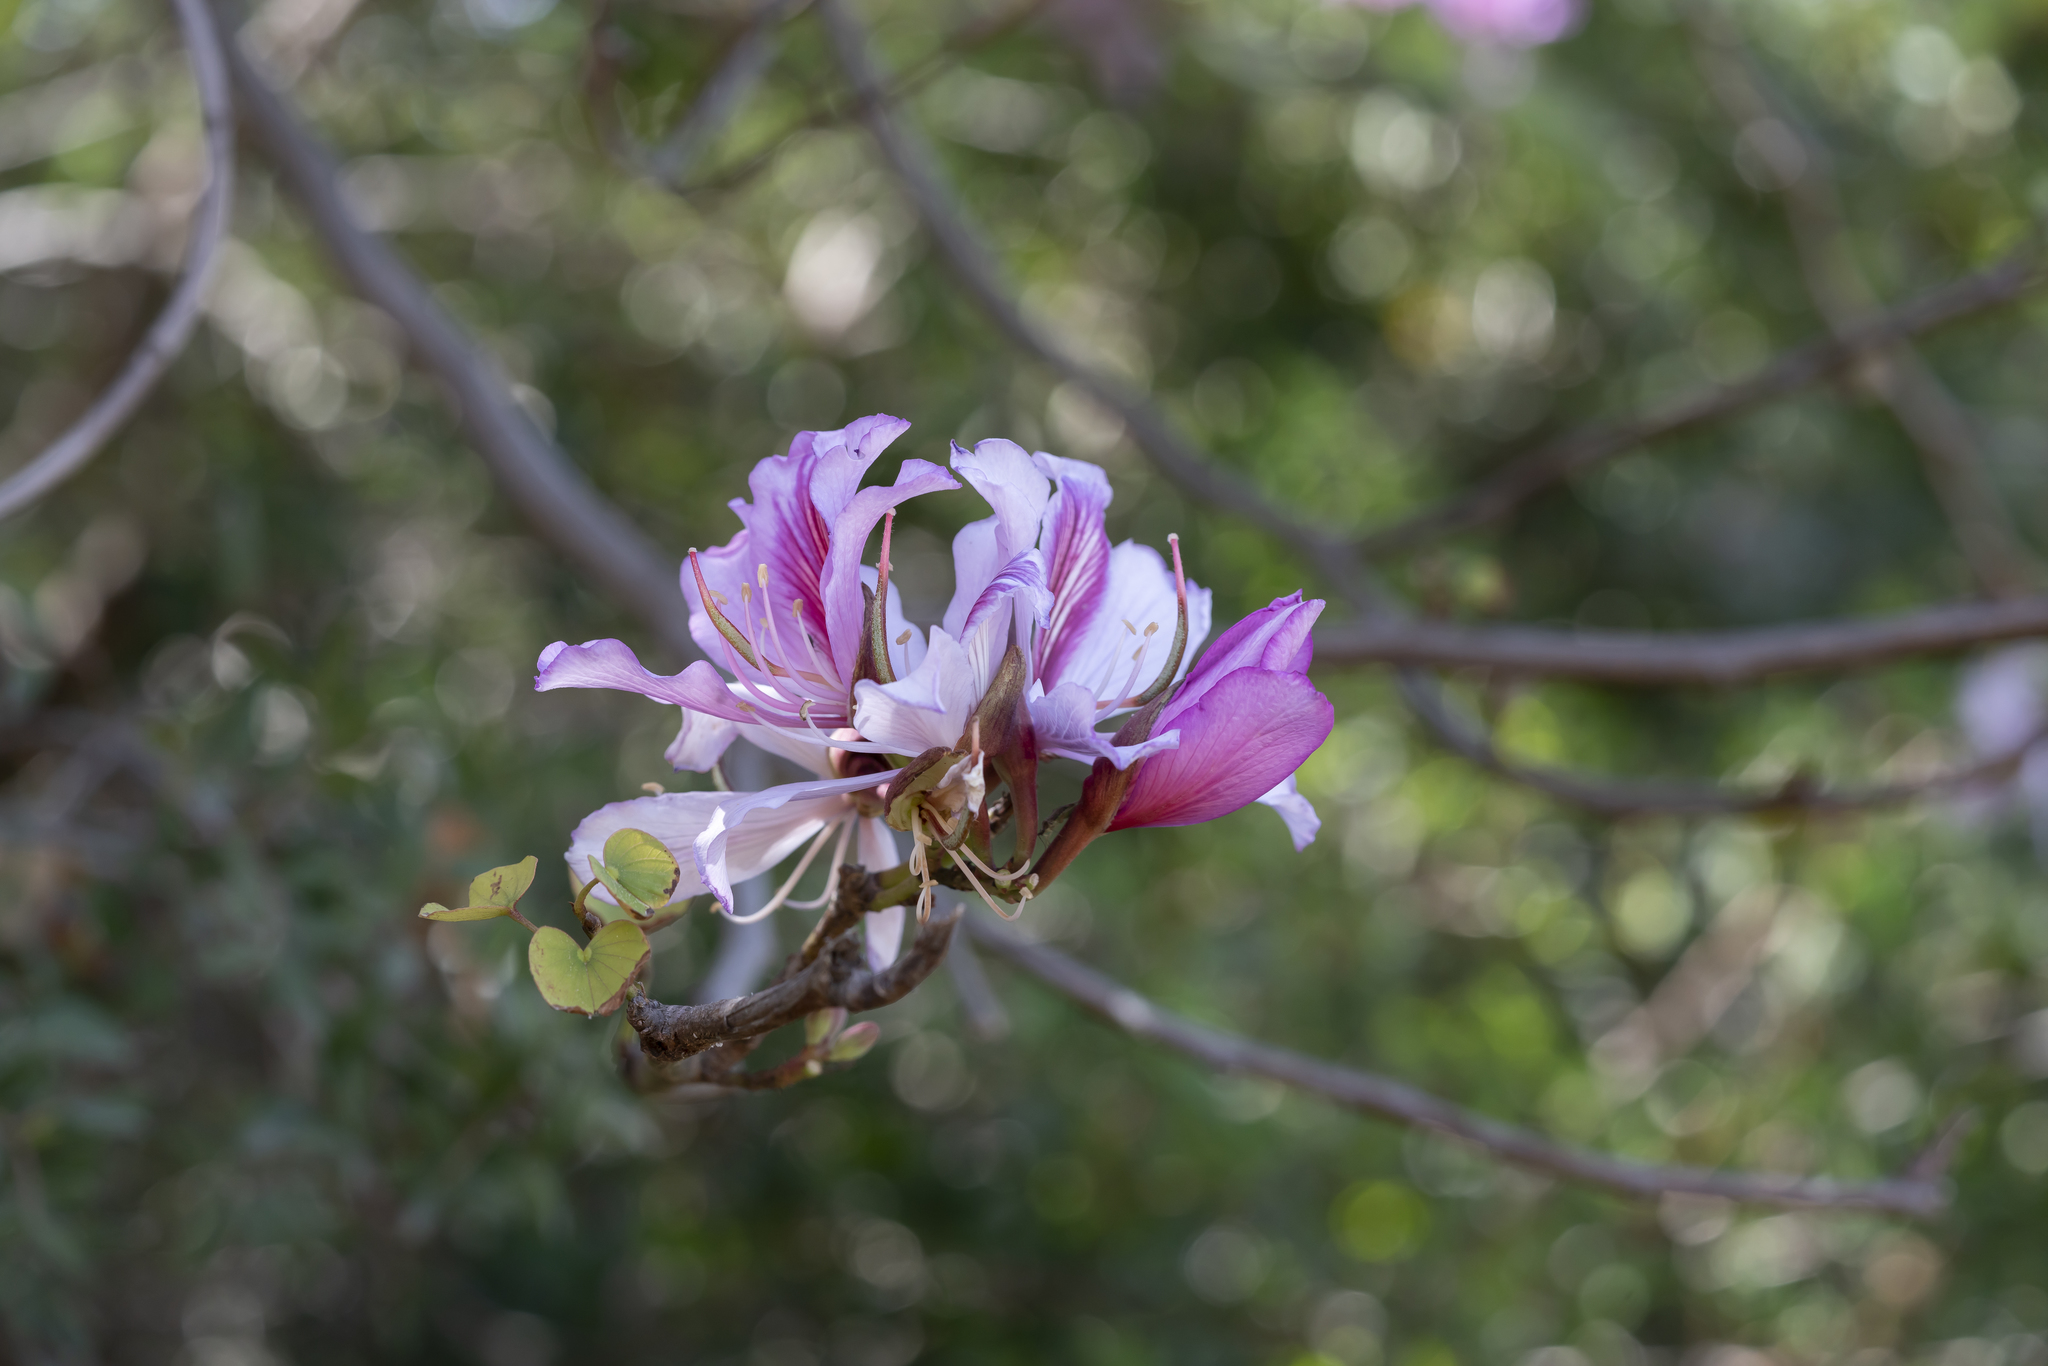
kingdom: Plantae
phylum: Tracheophyta
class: Magnoliopsida
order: Fabales
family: Fabaceae
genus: Bauhinia
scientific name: Bauhinia variegata
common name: Mountain ebony
